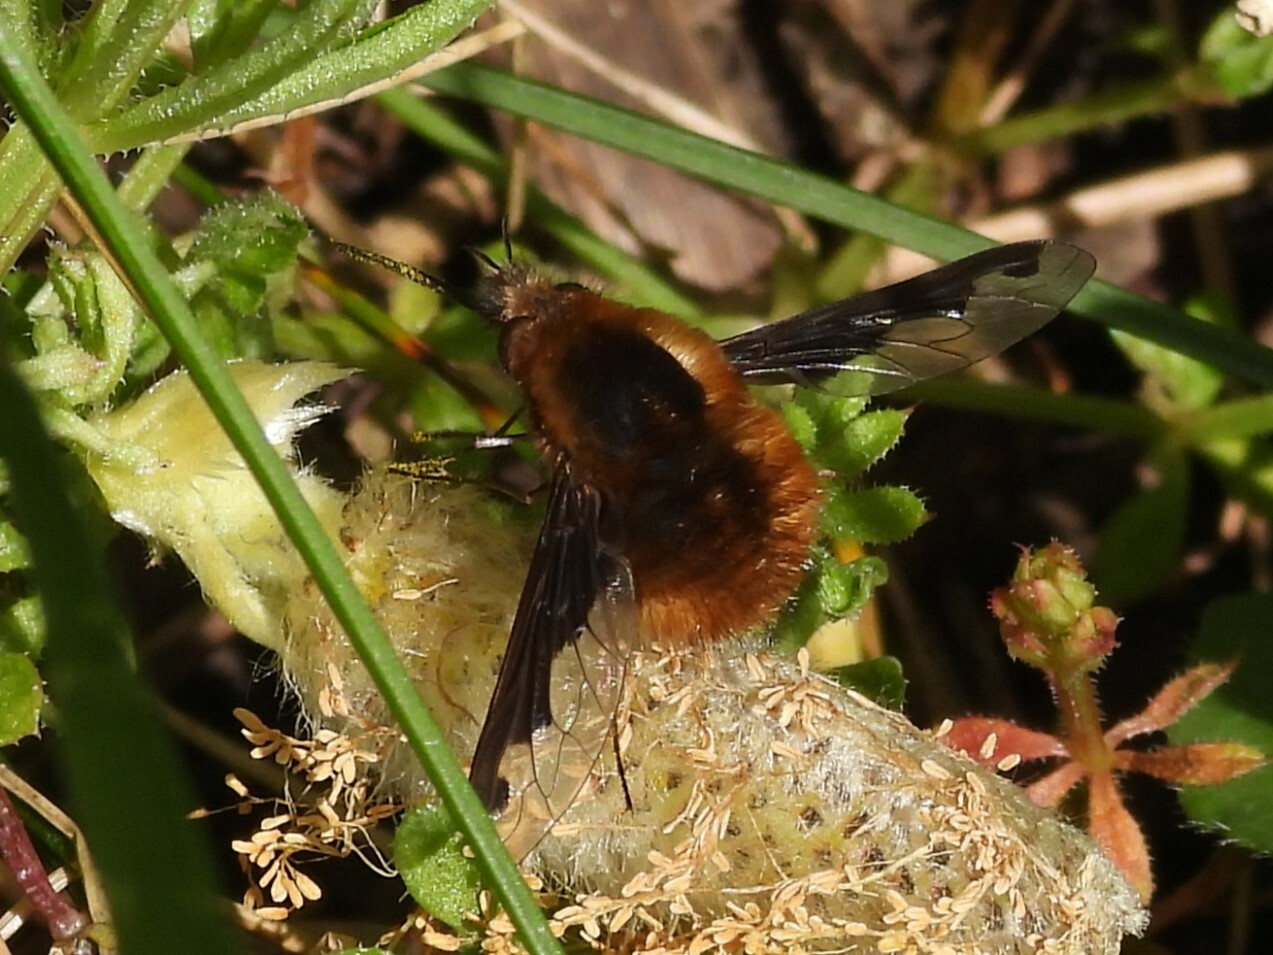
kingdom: Animalia
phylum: Arthropoda
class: Insecta
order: Diptera
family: Bombyliidae
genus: Bombylius
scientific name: Bombylius major
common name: Bee fly
